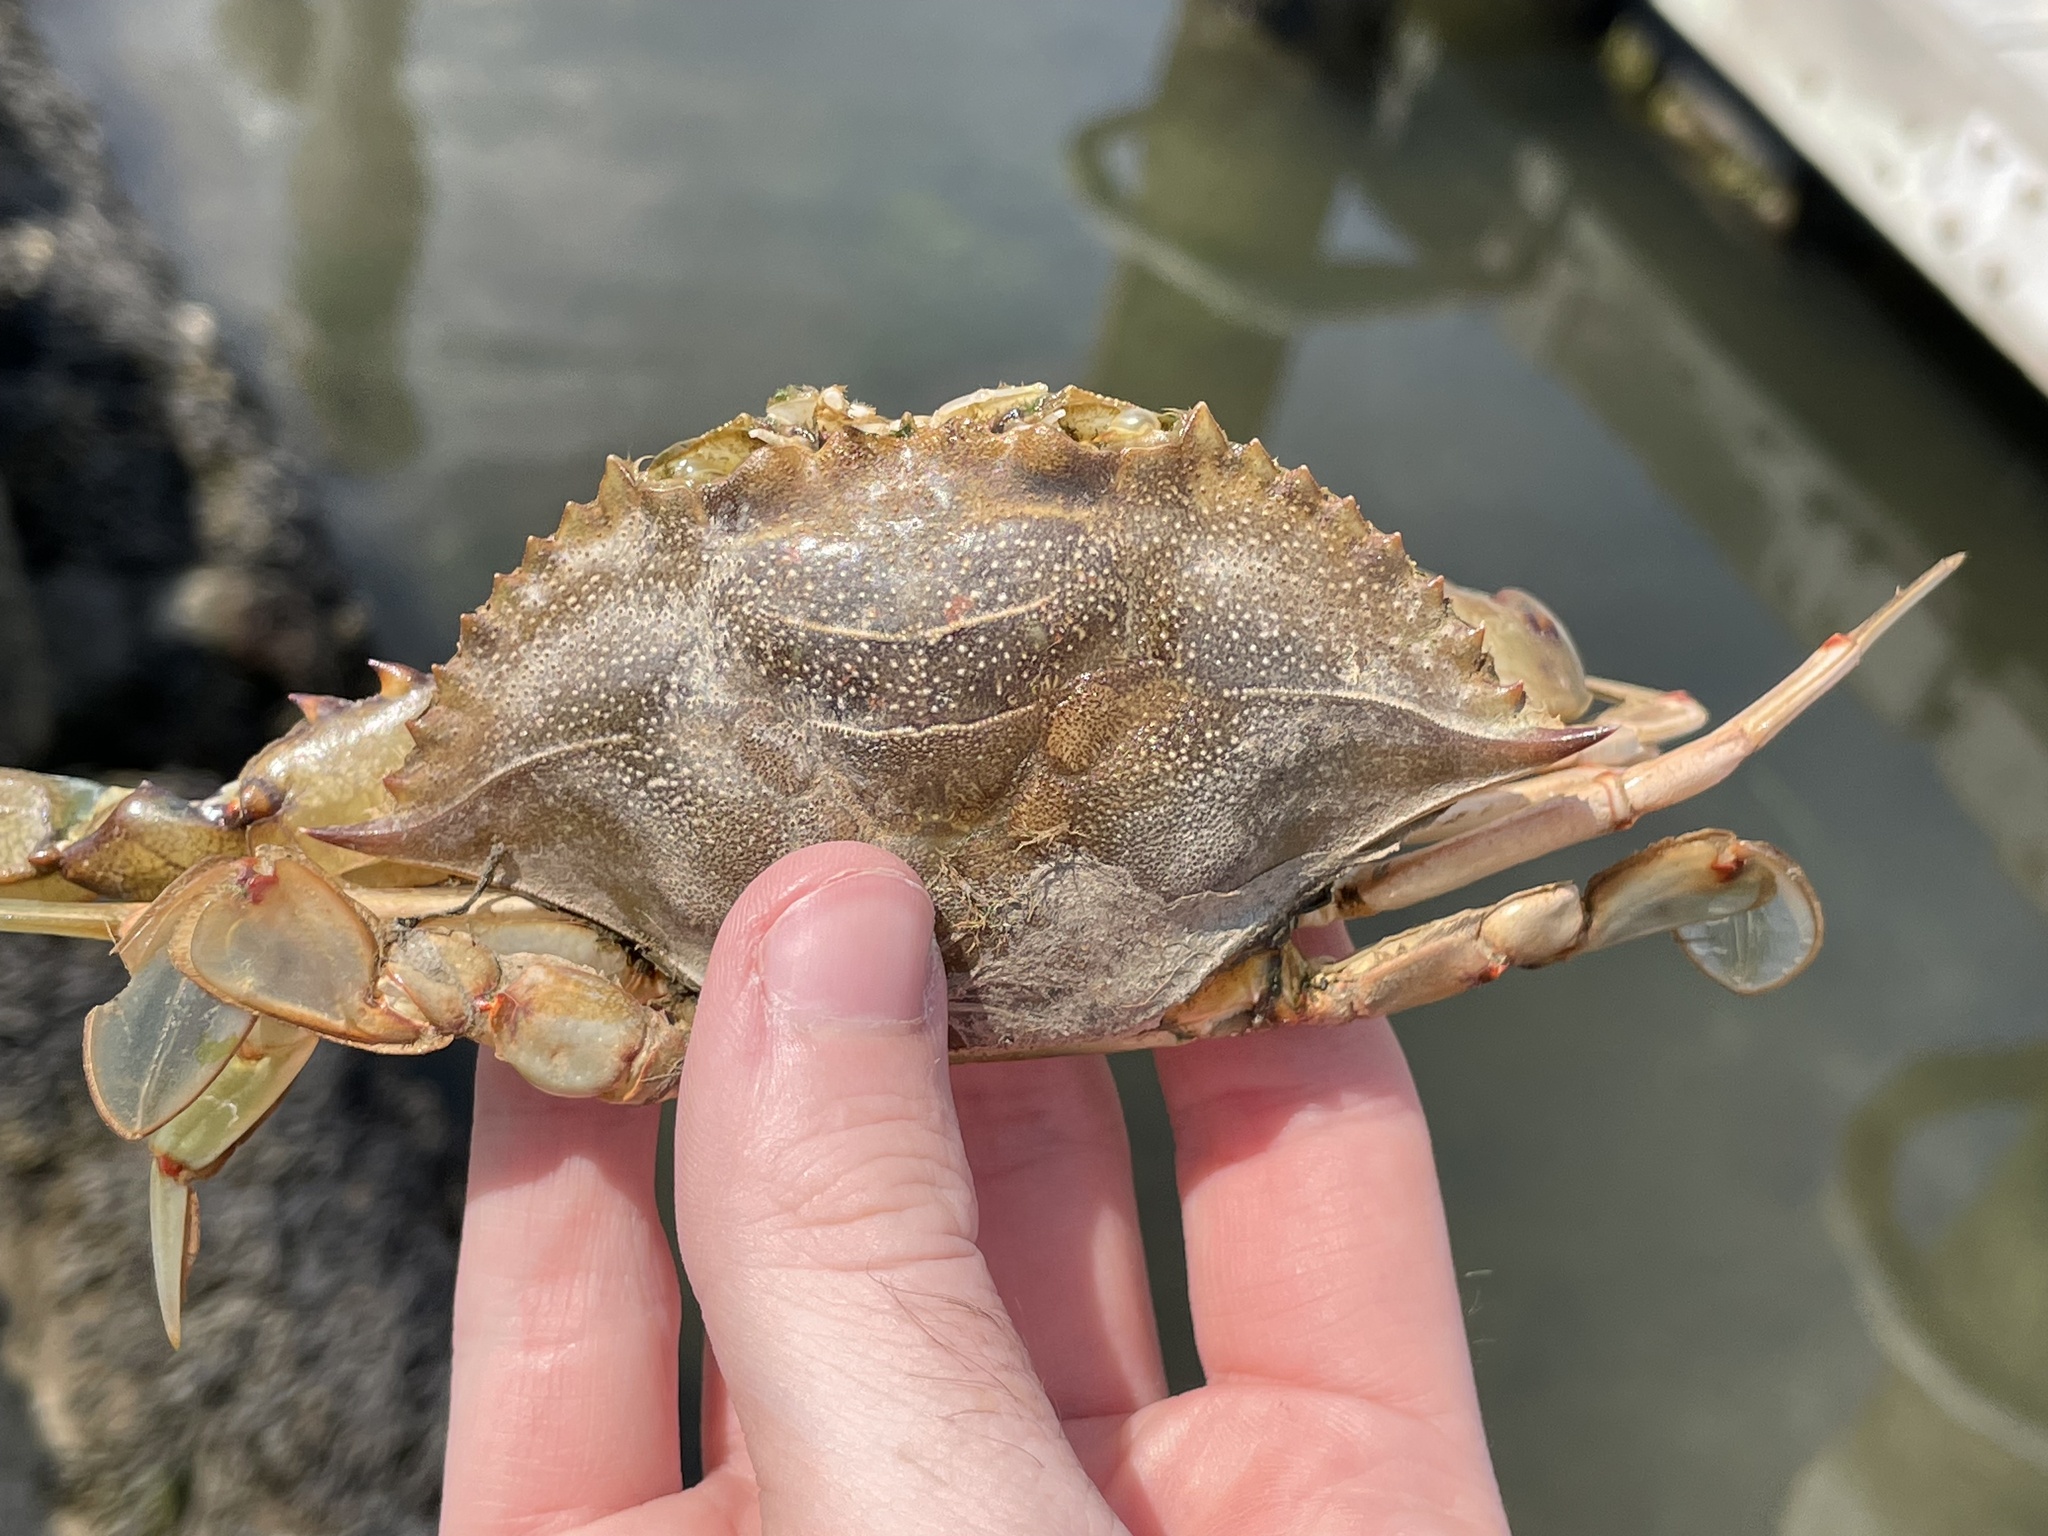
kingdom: Animalia
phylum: Arthropoda
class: Malacostraca
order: Decapoda
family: Portunidae
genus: Callinectes
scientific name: Callinectes sapidus
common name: Blue crab
